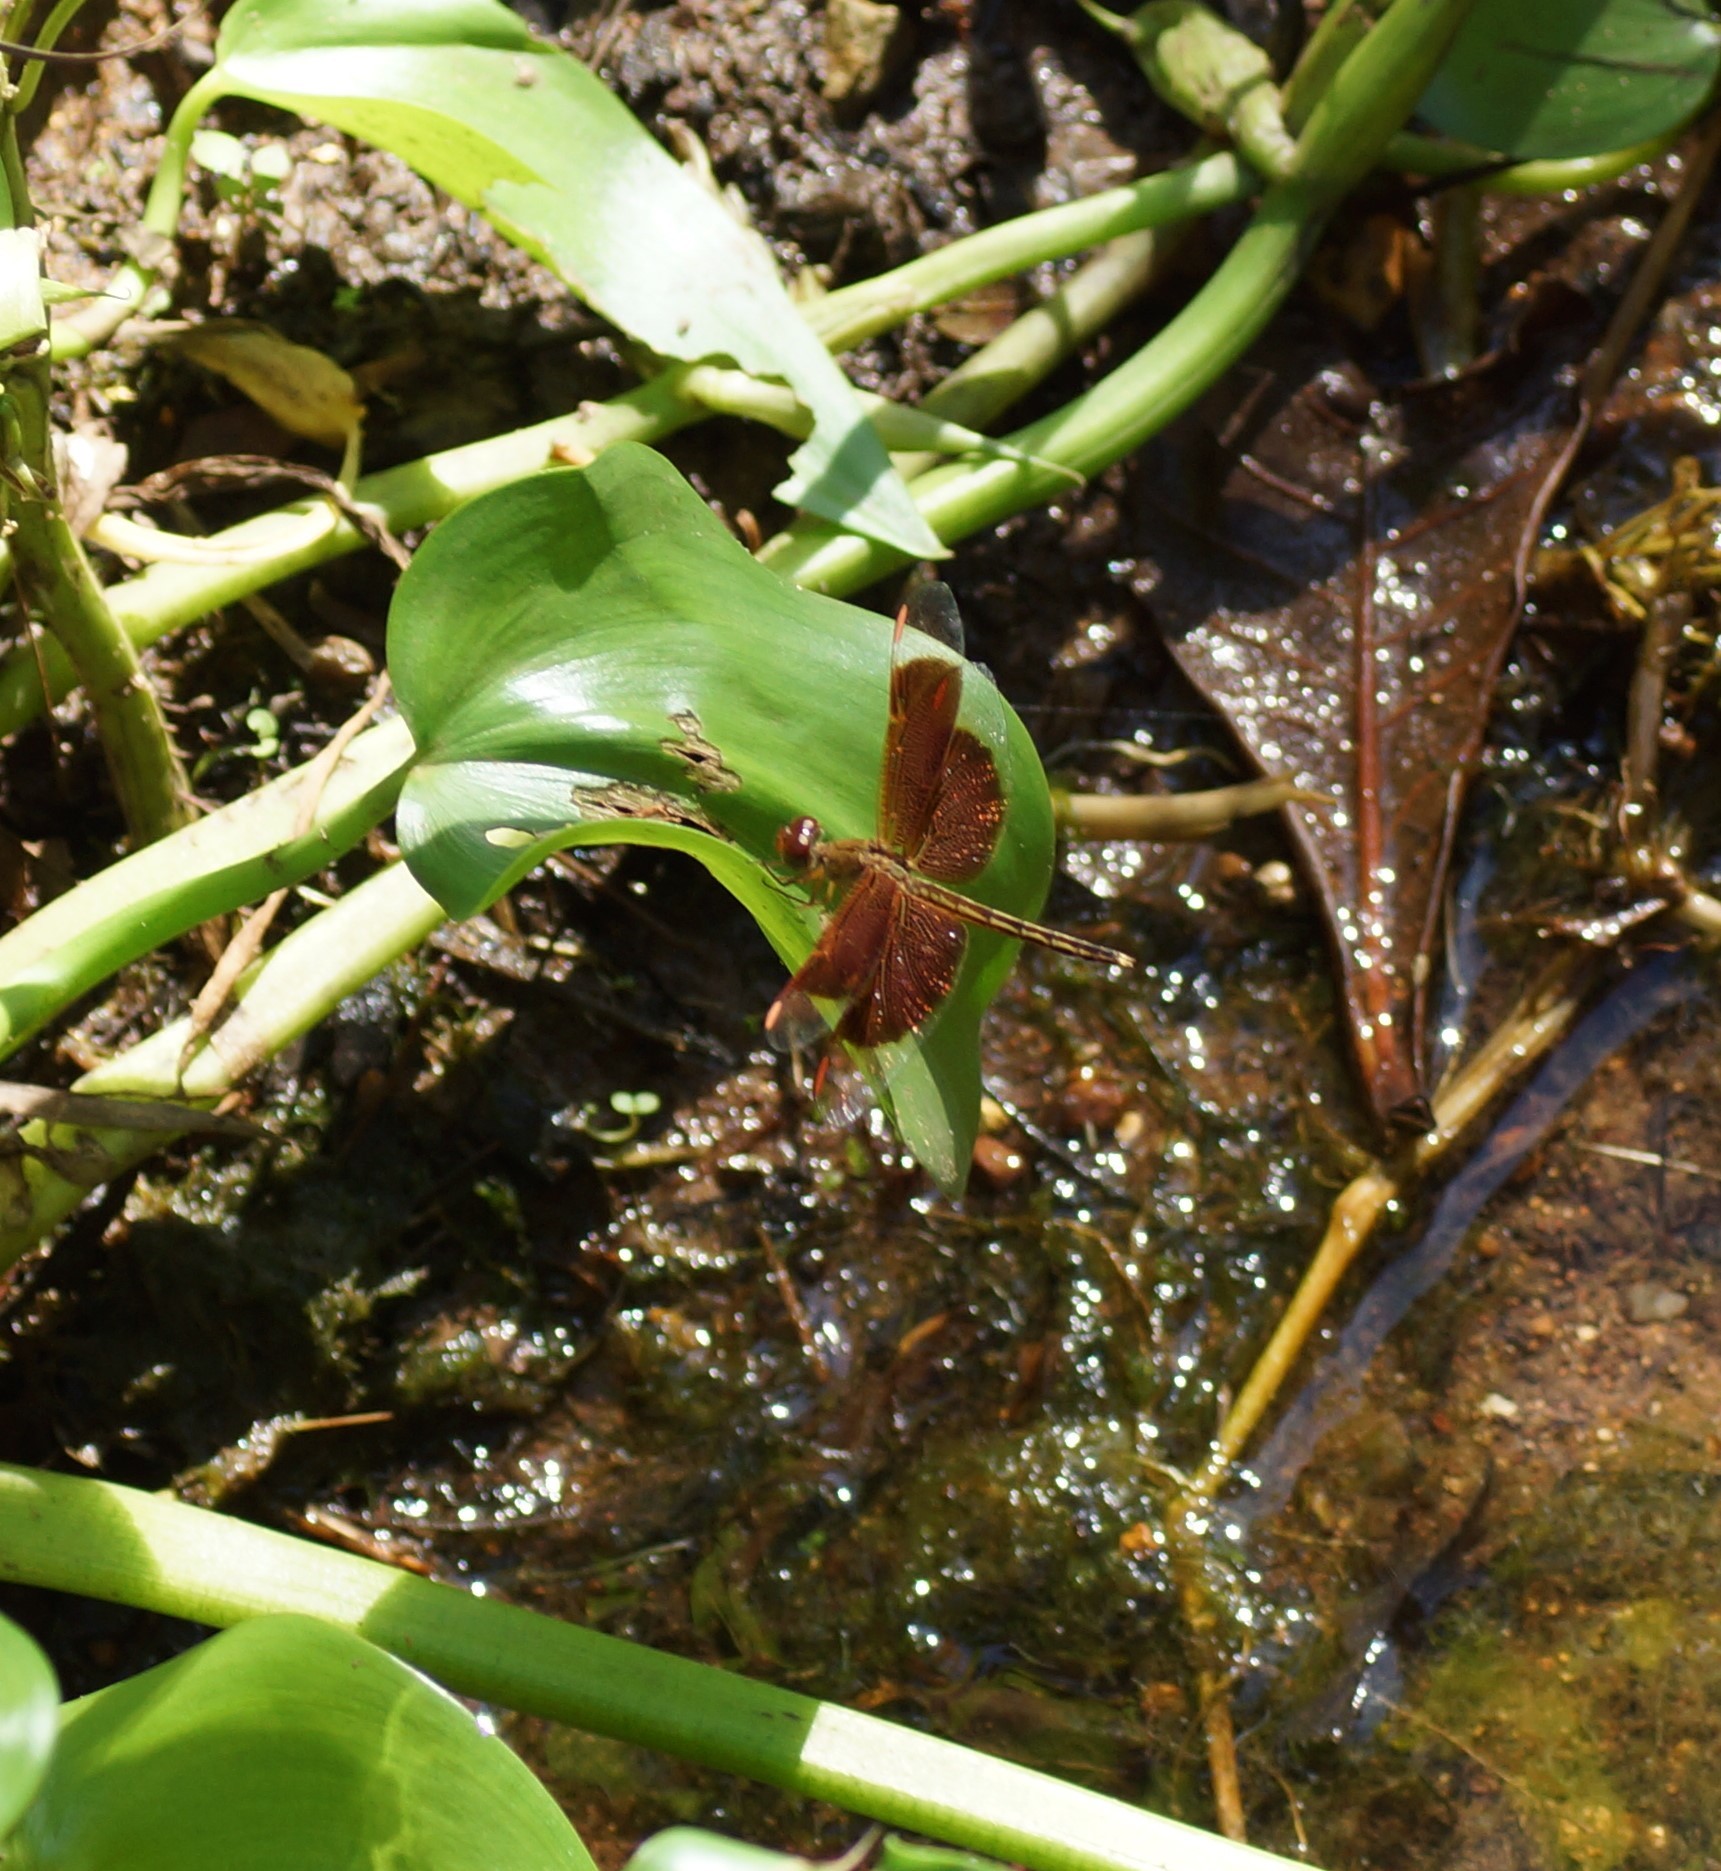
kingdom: Animalia
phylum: Arthropoda
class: Insecta
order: Odonata
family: Libellulidae
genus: Neurothemis
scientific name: Neurothemis stigmatizans
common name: Painted grasshawk
